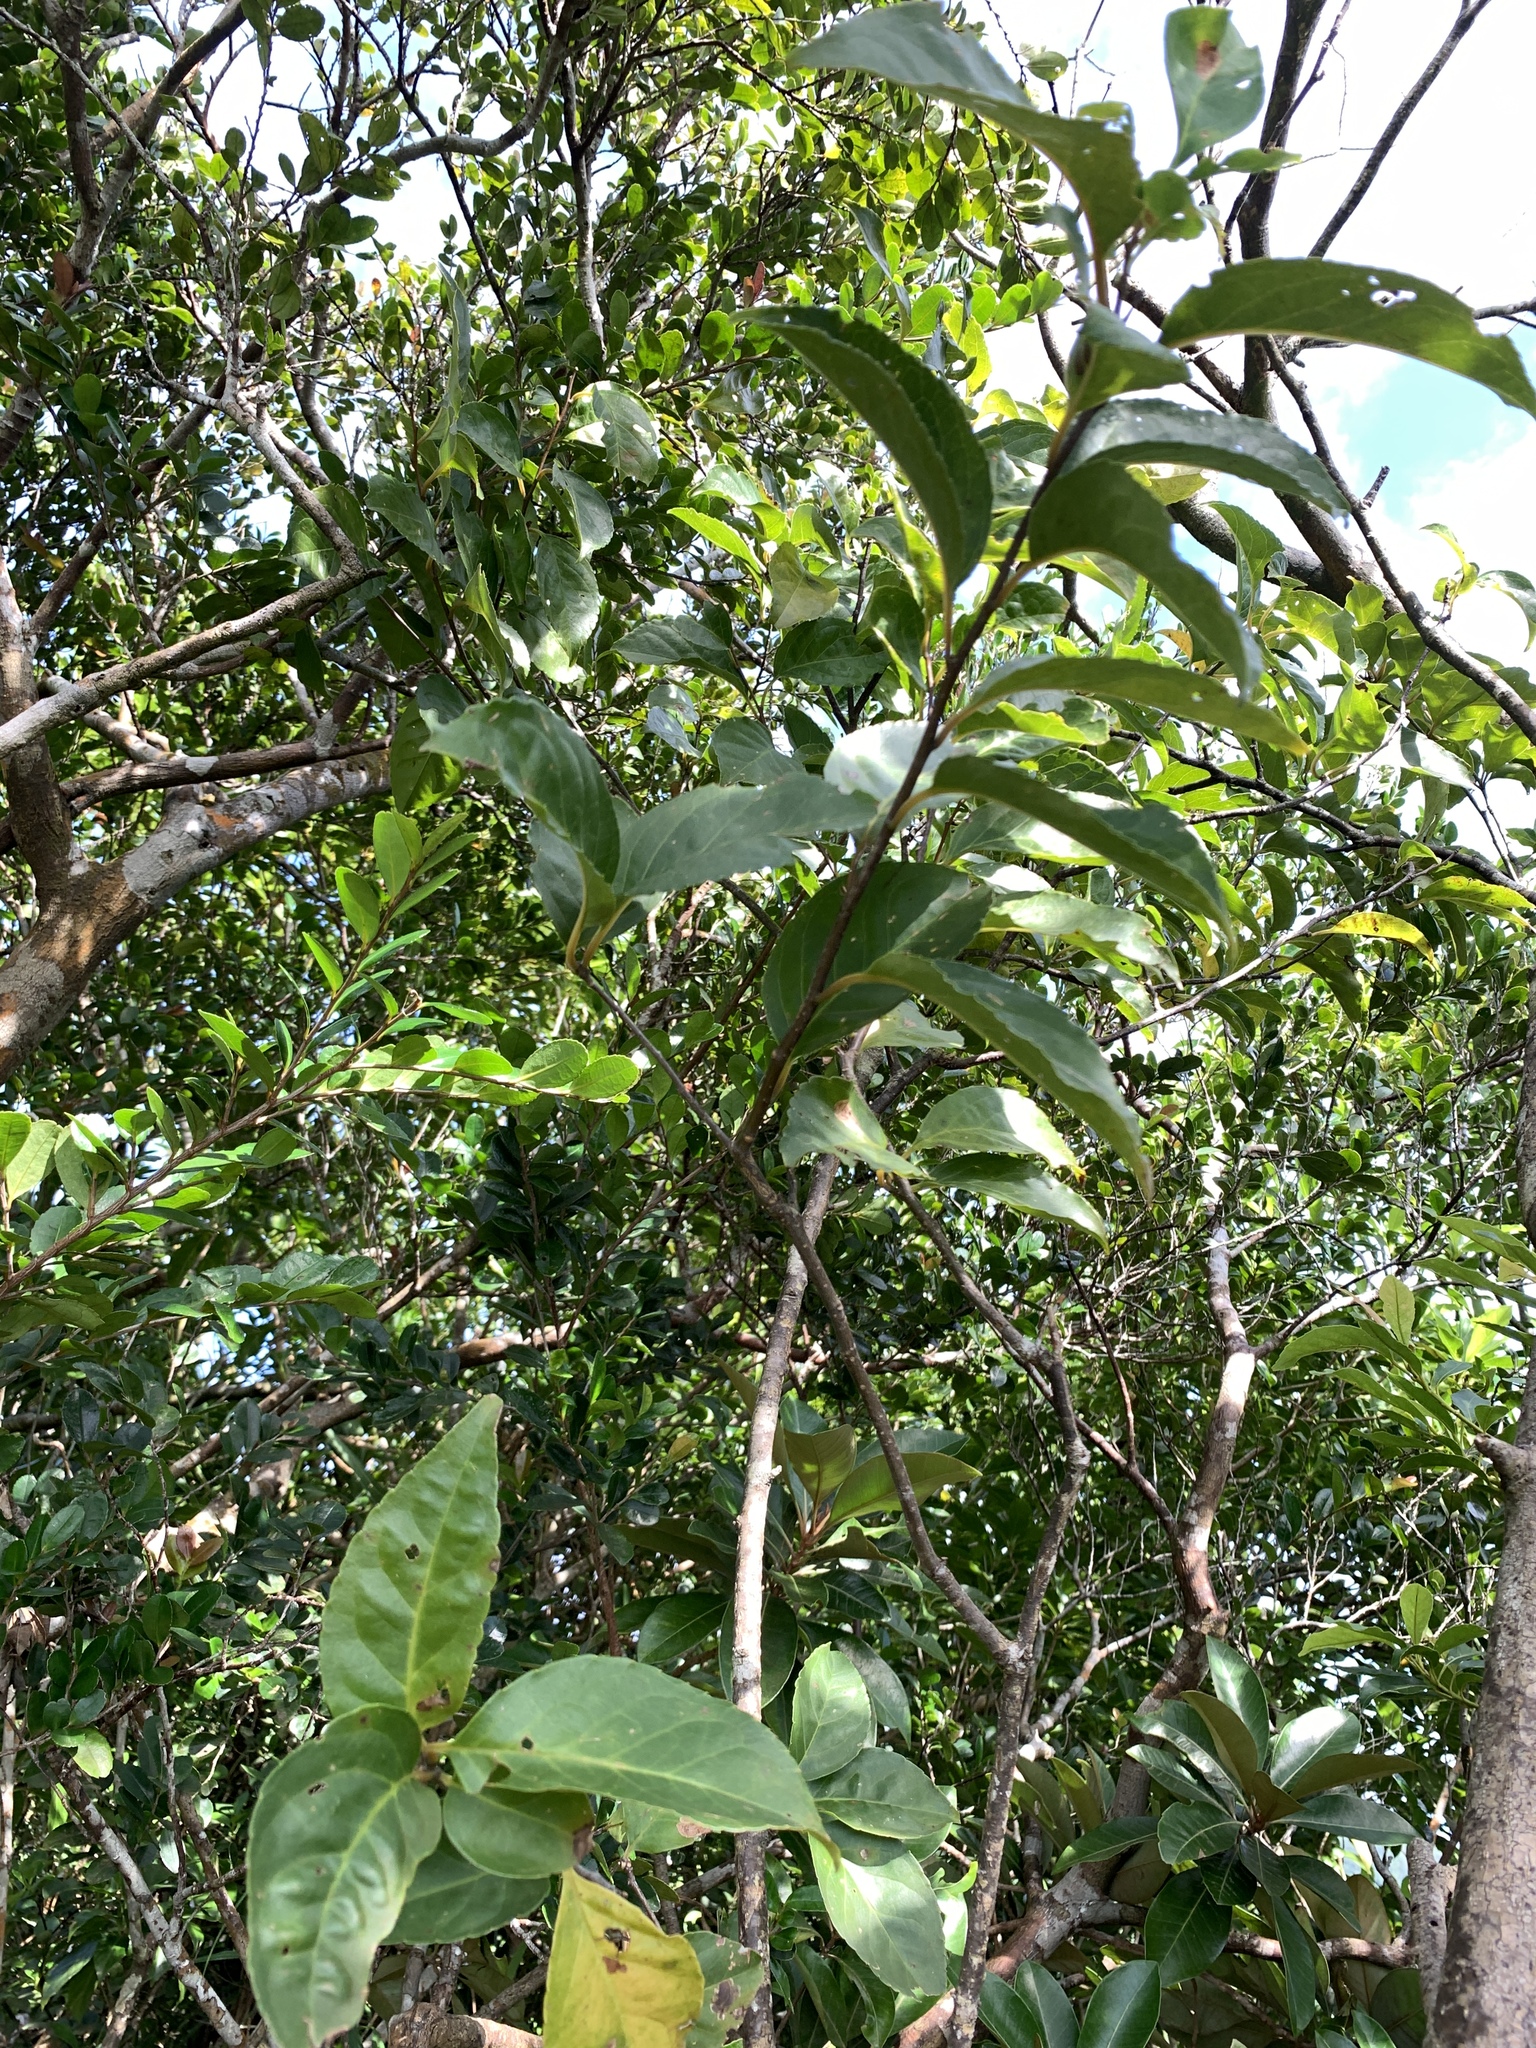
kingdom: Plantae
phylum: Tracheophyta
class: Magnoliopsida
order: Ericales
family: Styracaceae
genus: Styrax
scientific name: Styrax japonicus
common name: Japanese snowbell
